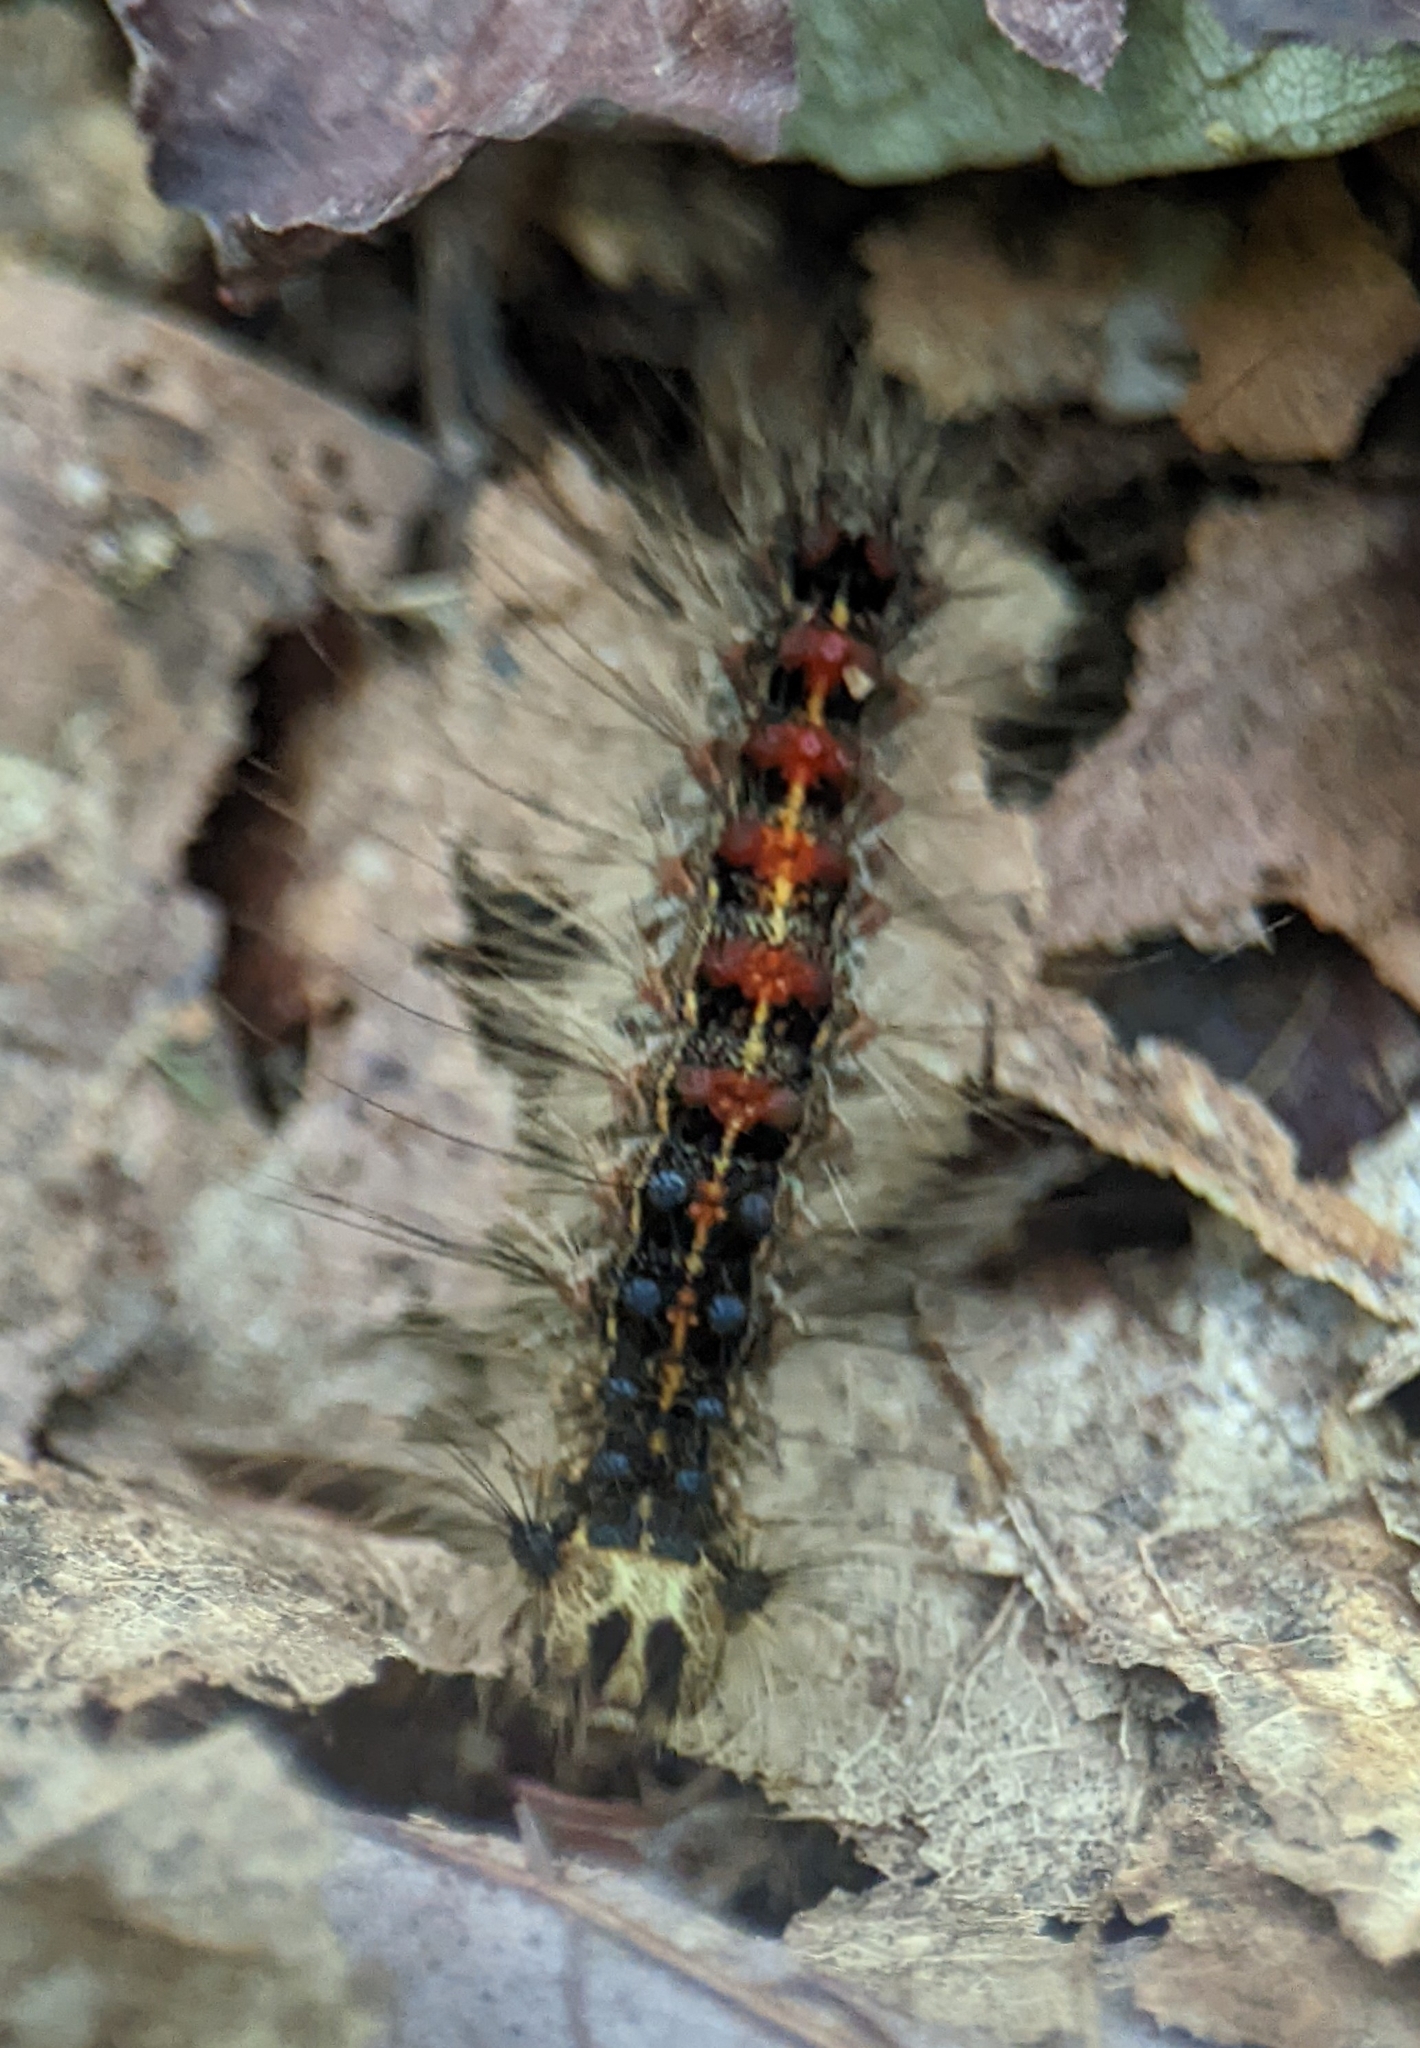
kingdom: Animalia
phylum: Arthropoda
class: Insecta
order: Lepidoptera
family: Erebidae
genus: Lymantria
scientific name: Lymantria dispar
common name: Gypsy moth
